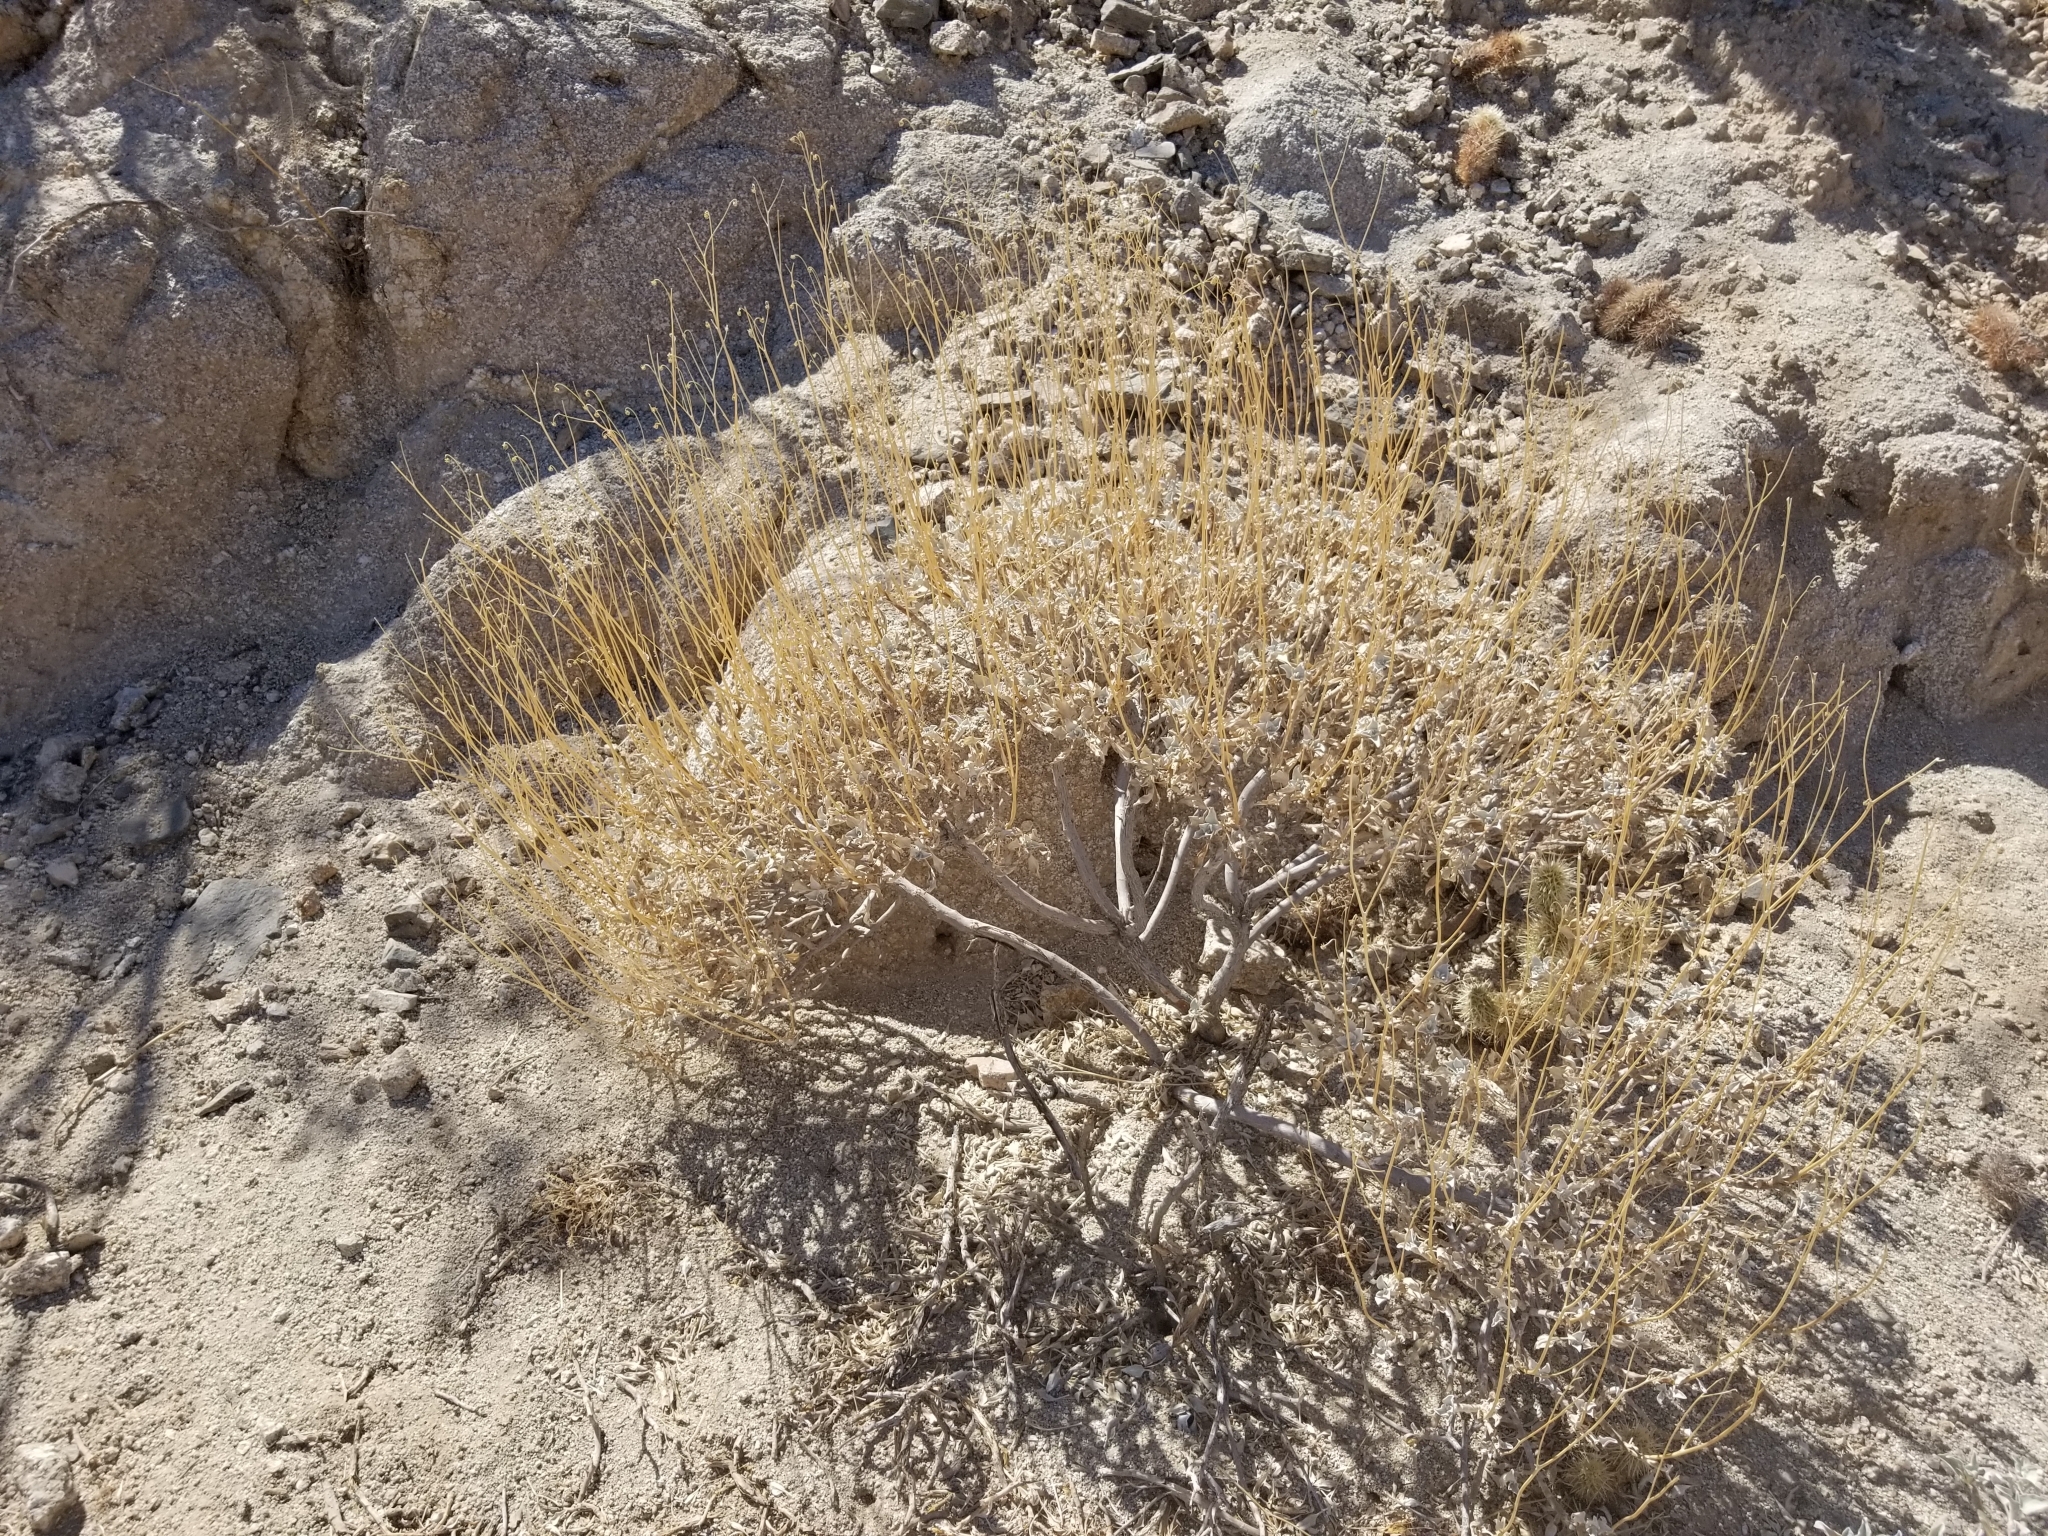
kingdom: Plantae
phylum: Tracheophyta
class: Magnoliopsida
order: Asterales
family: Asteraceae
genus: Encelia
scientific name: Encelia farinosa
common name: Brittlebush
